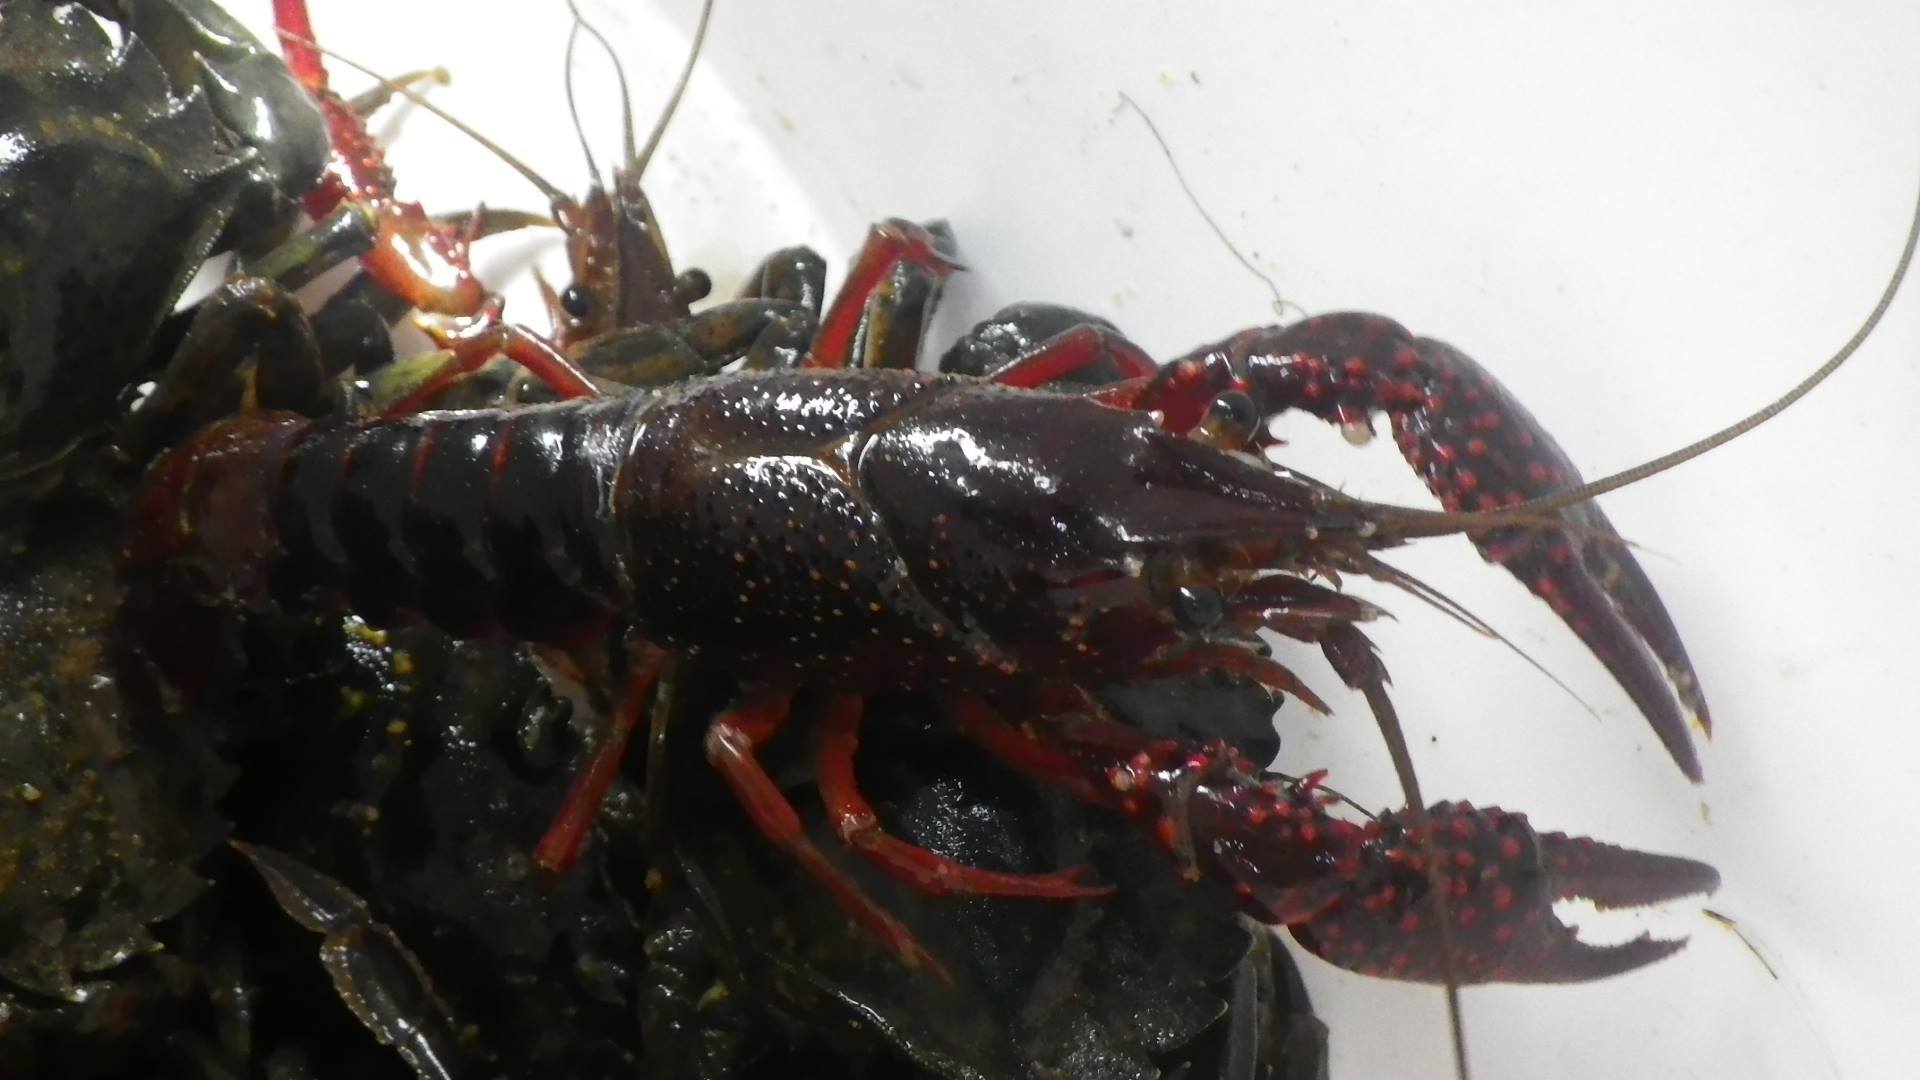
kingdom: Animalia
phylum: Arthropoda
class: Malacostraca
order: Decapoda
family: Cambaridae
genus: Procambarus
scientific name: Procambarus clarkii
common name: Red swamp crayfish
